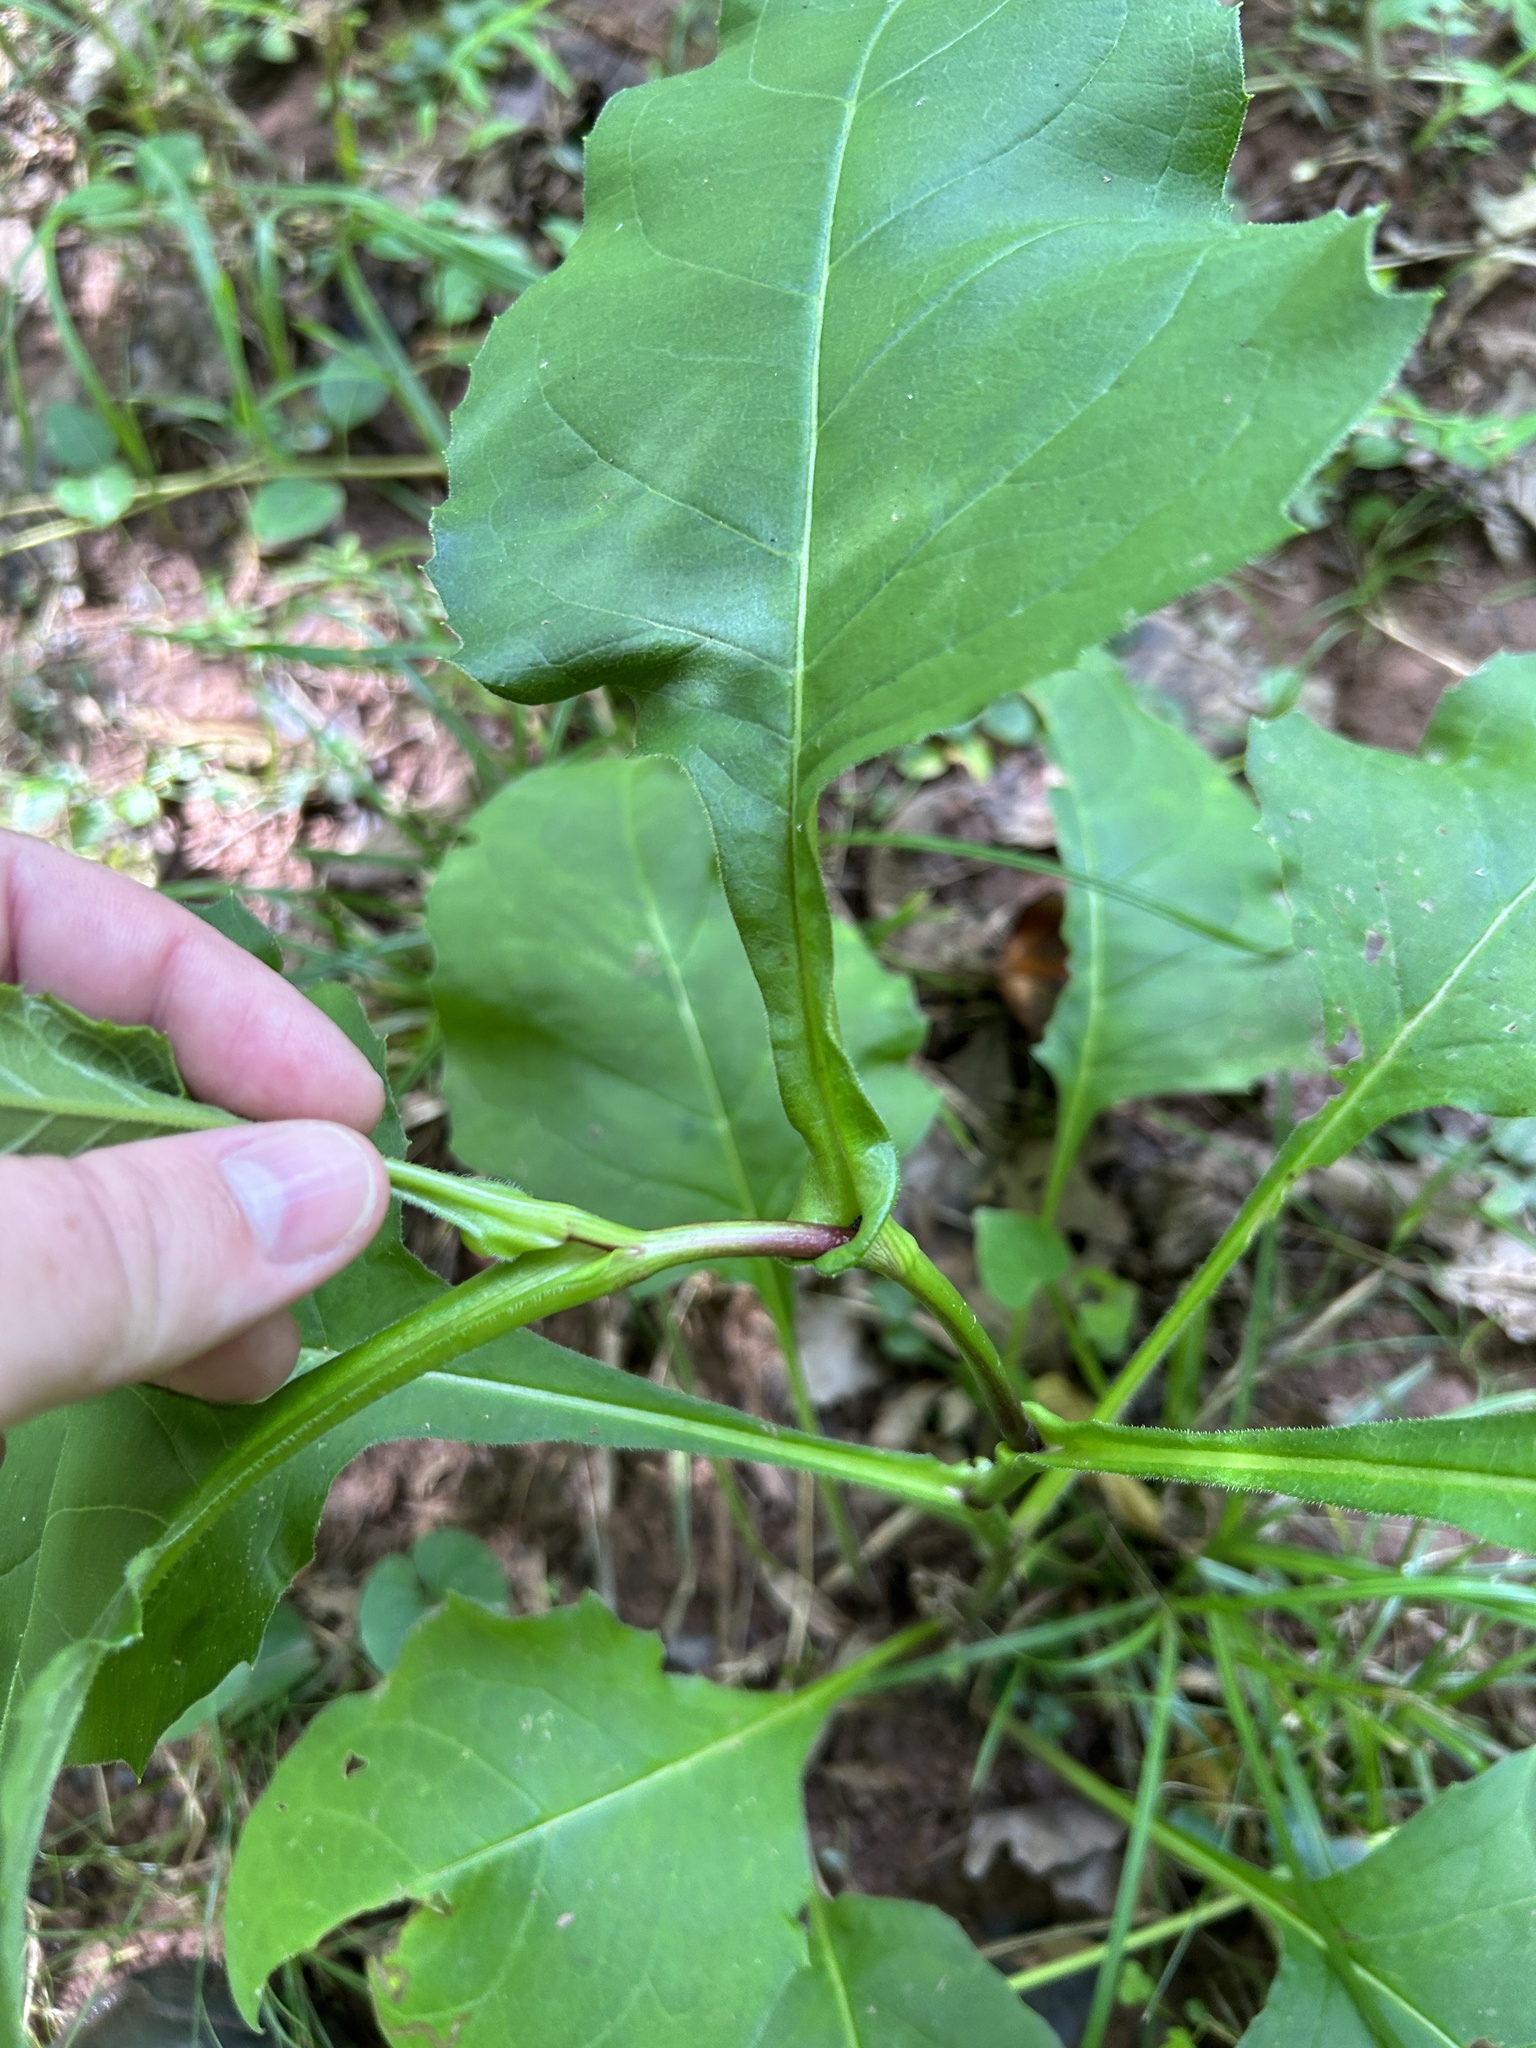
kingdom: Plantae
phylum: Tracheophyta
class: Magnoliopsida
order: Asterales
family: Asteraceae
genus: Silphium
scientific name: Silphium perfoliatum
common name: Cup-plant
